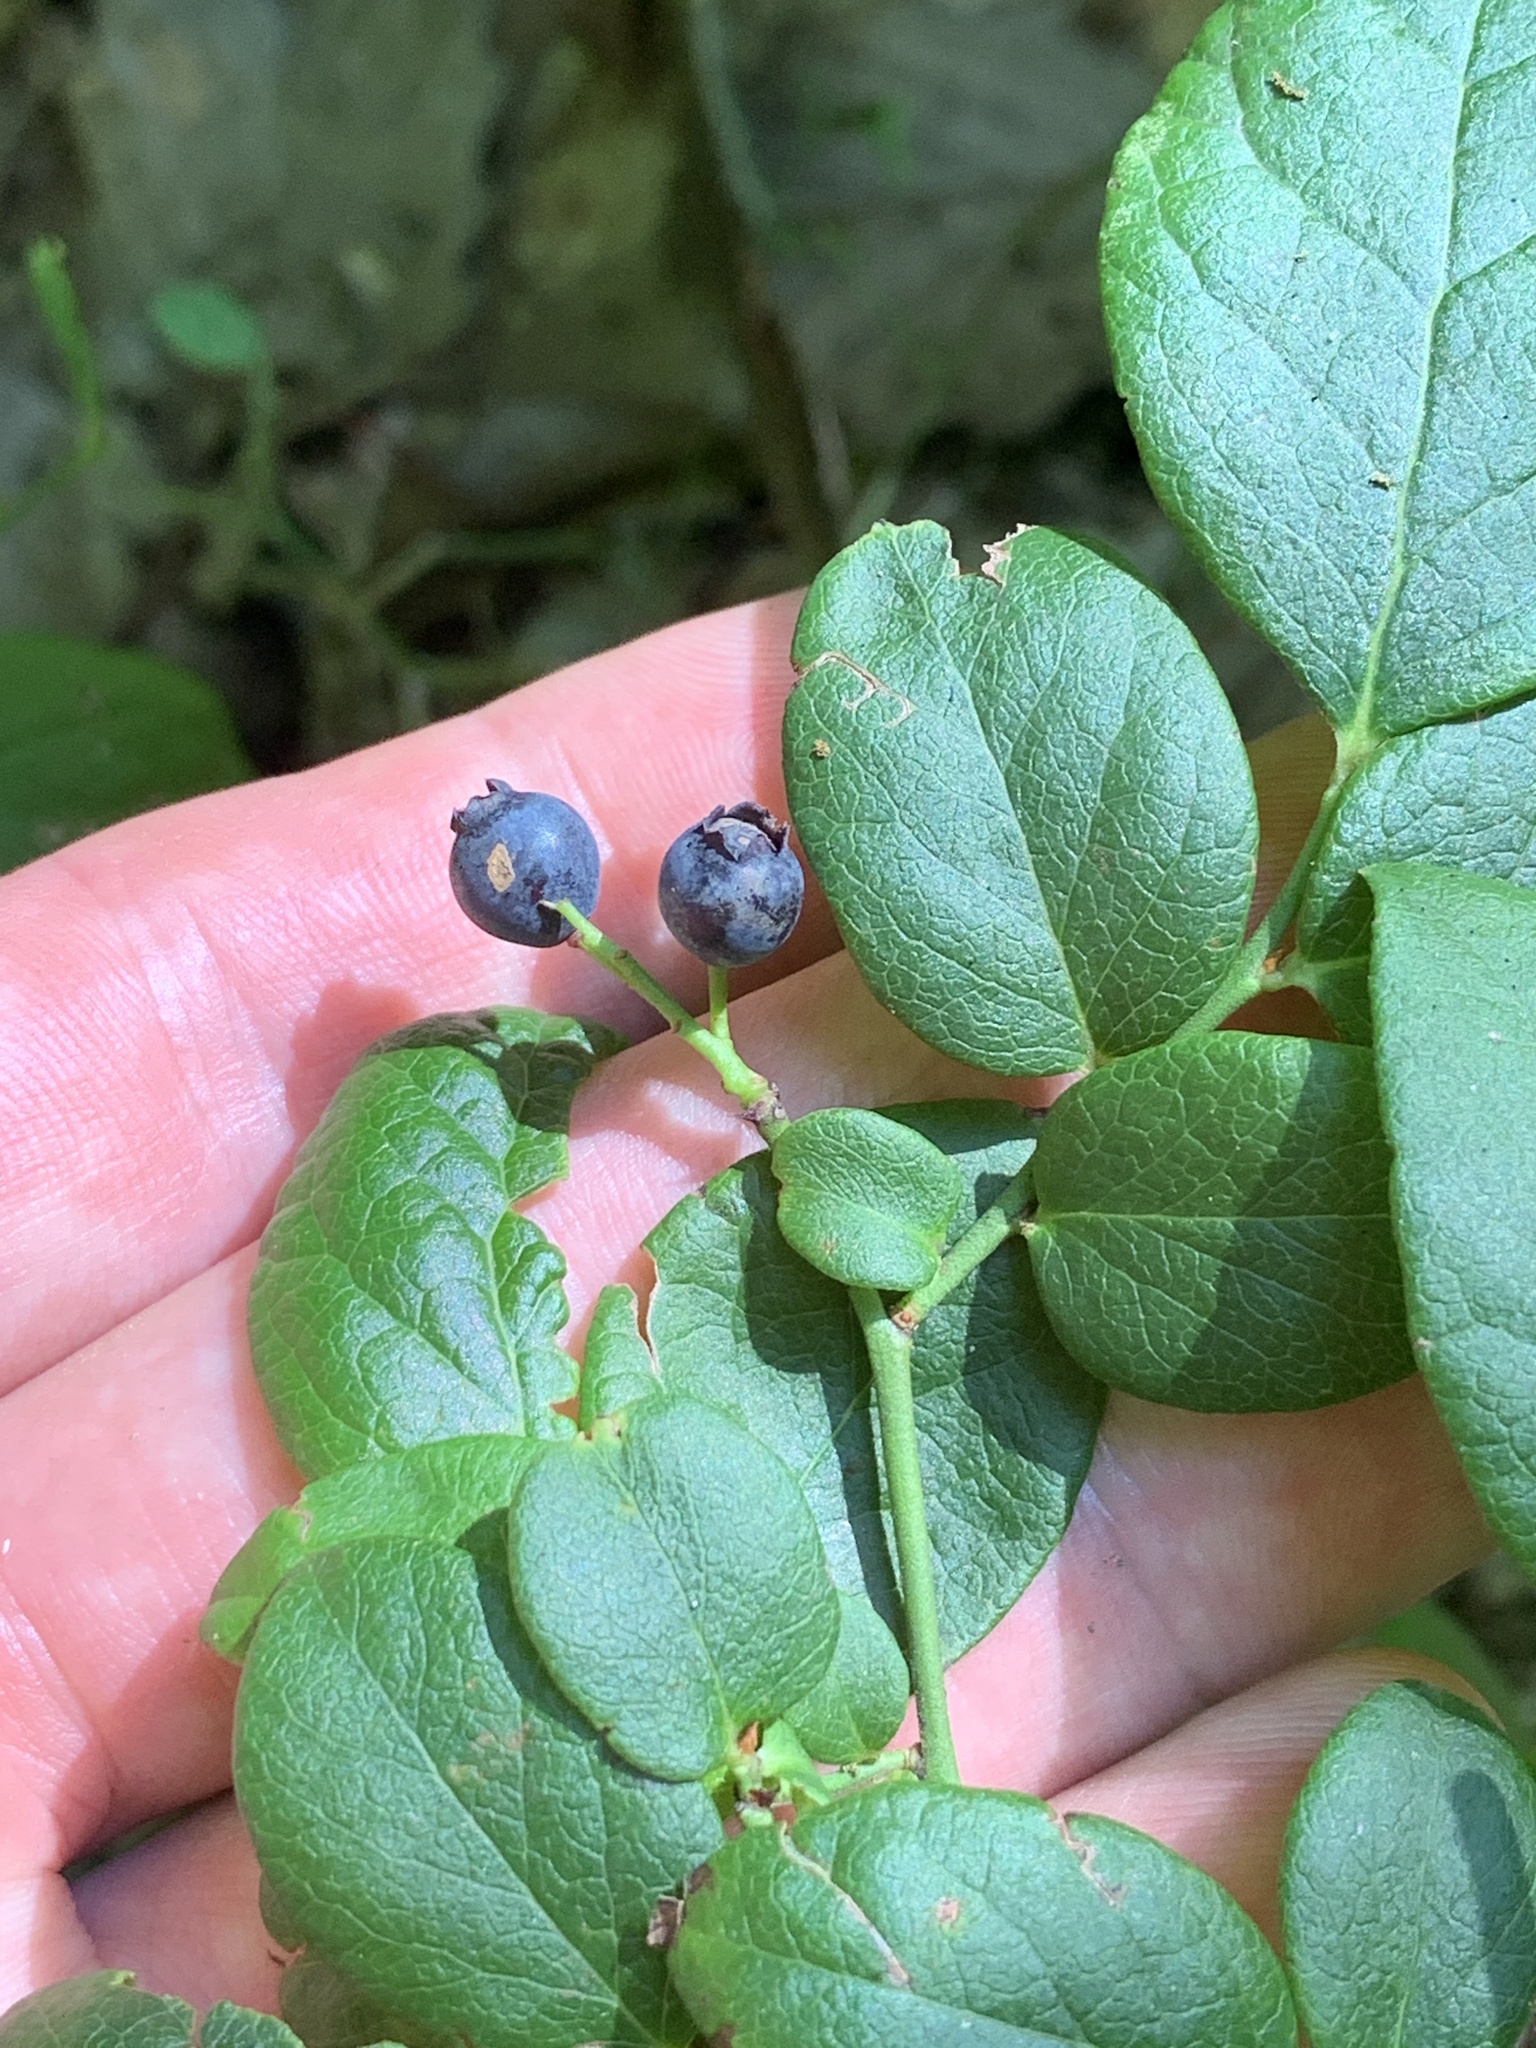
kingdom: Plantae
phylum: Tracheophyta
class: Magnoliopsida
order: Ericales
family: Ericaceae
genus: Vaccinium
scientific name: Vaccinium pallidum
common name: Blue ridge blueberry
